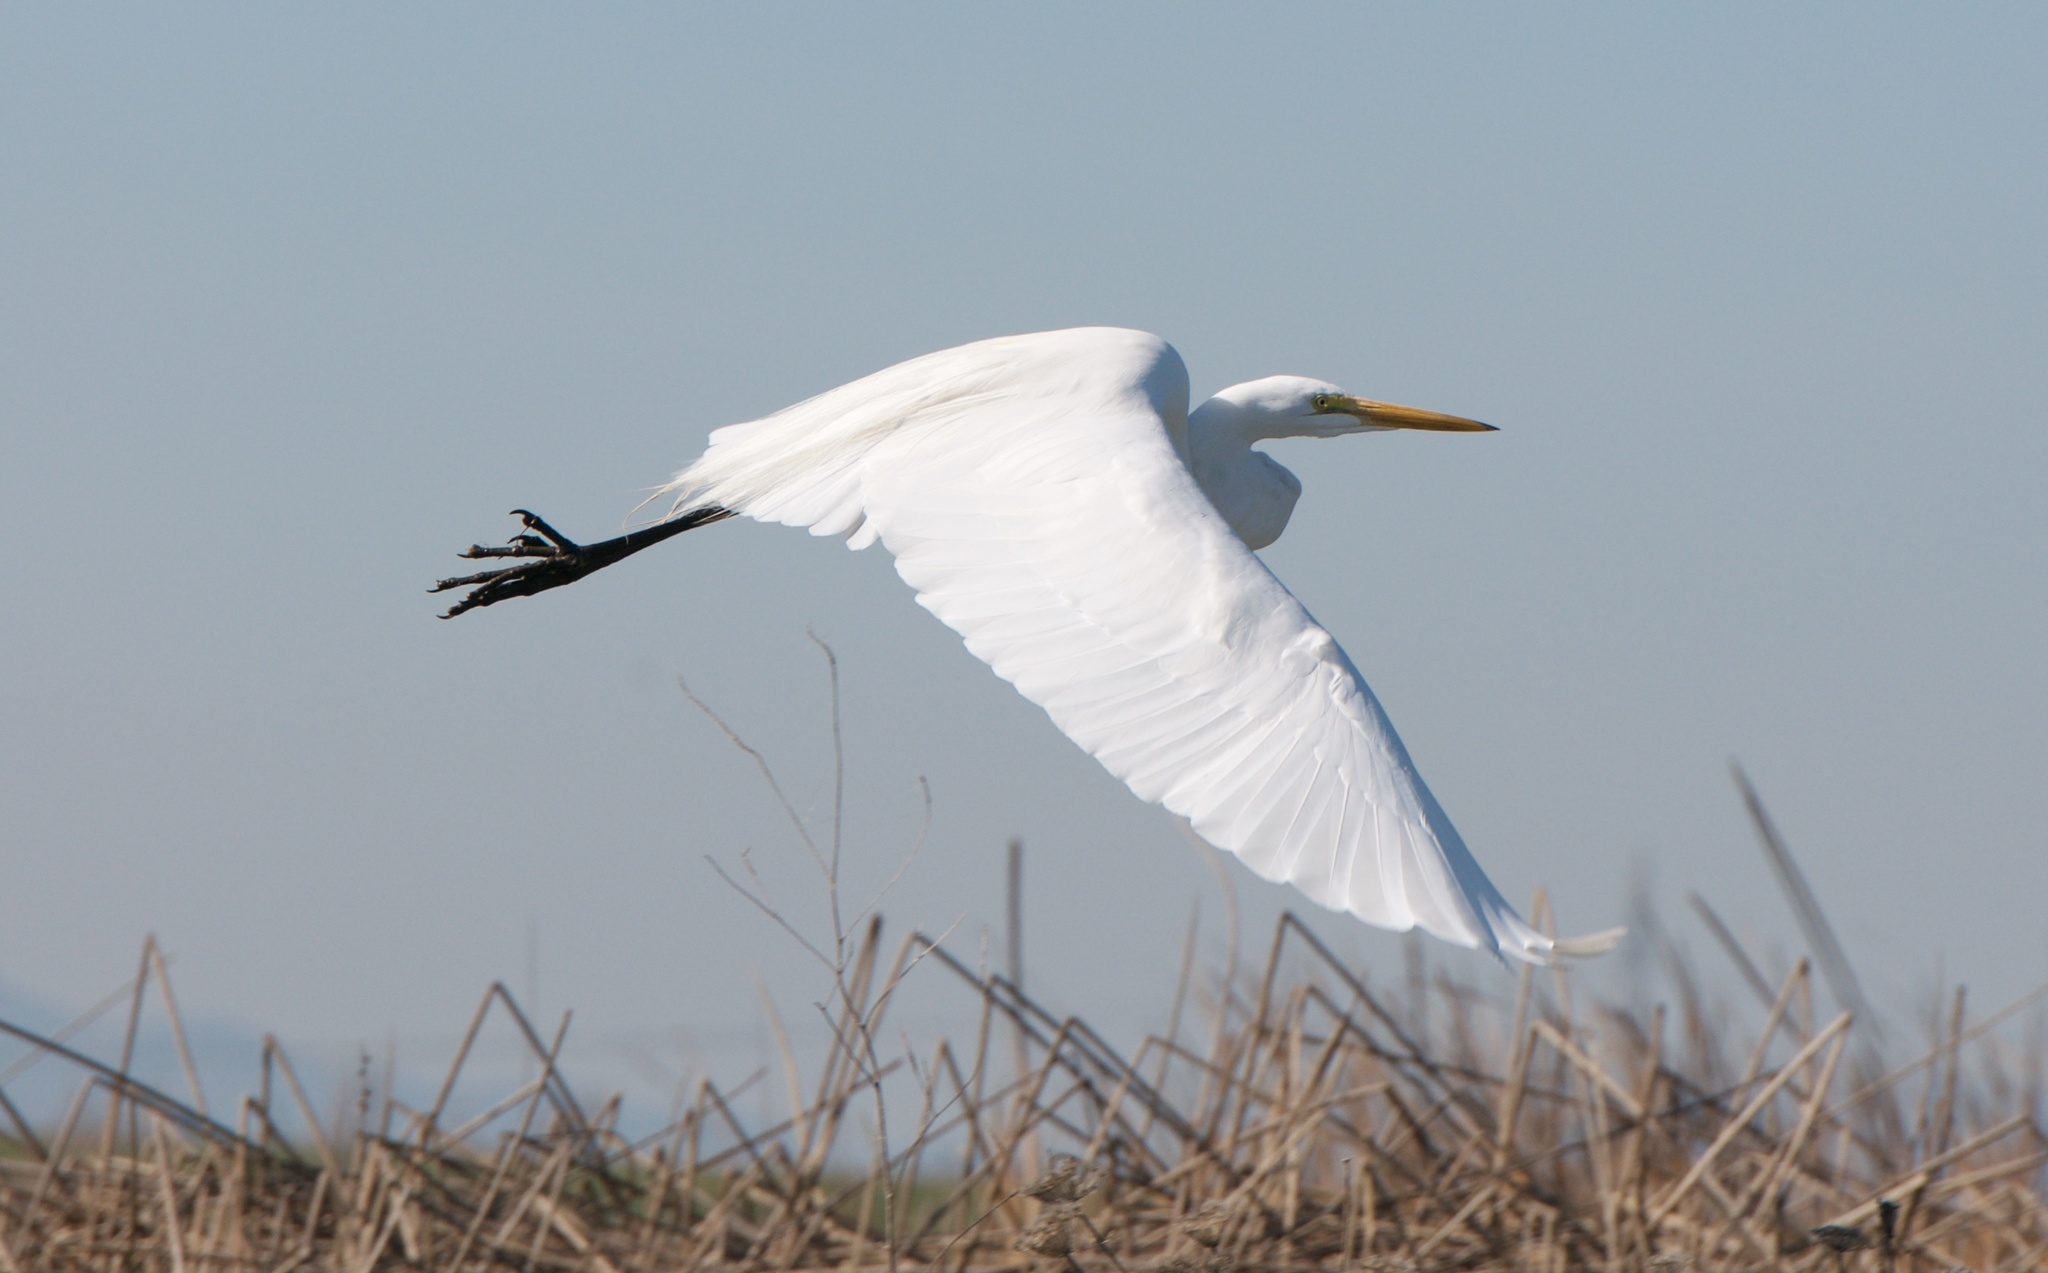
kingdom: Animalia
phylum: Chordata
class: Aves
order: Pelecaniformes
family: Ardeidae
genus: Ardea
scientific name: Ardea alba
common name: Great egret
